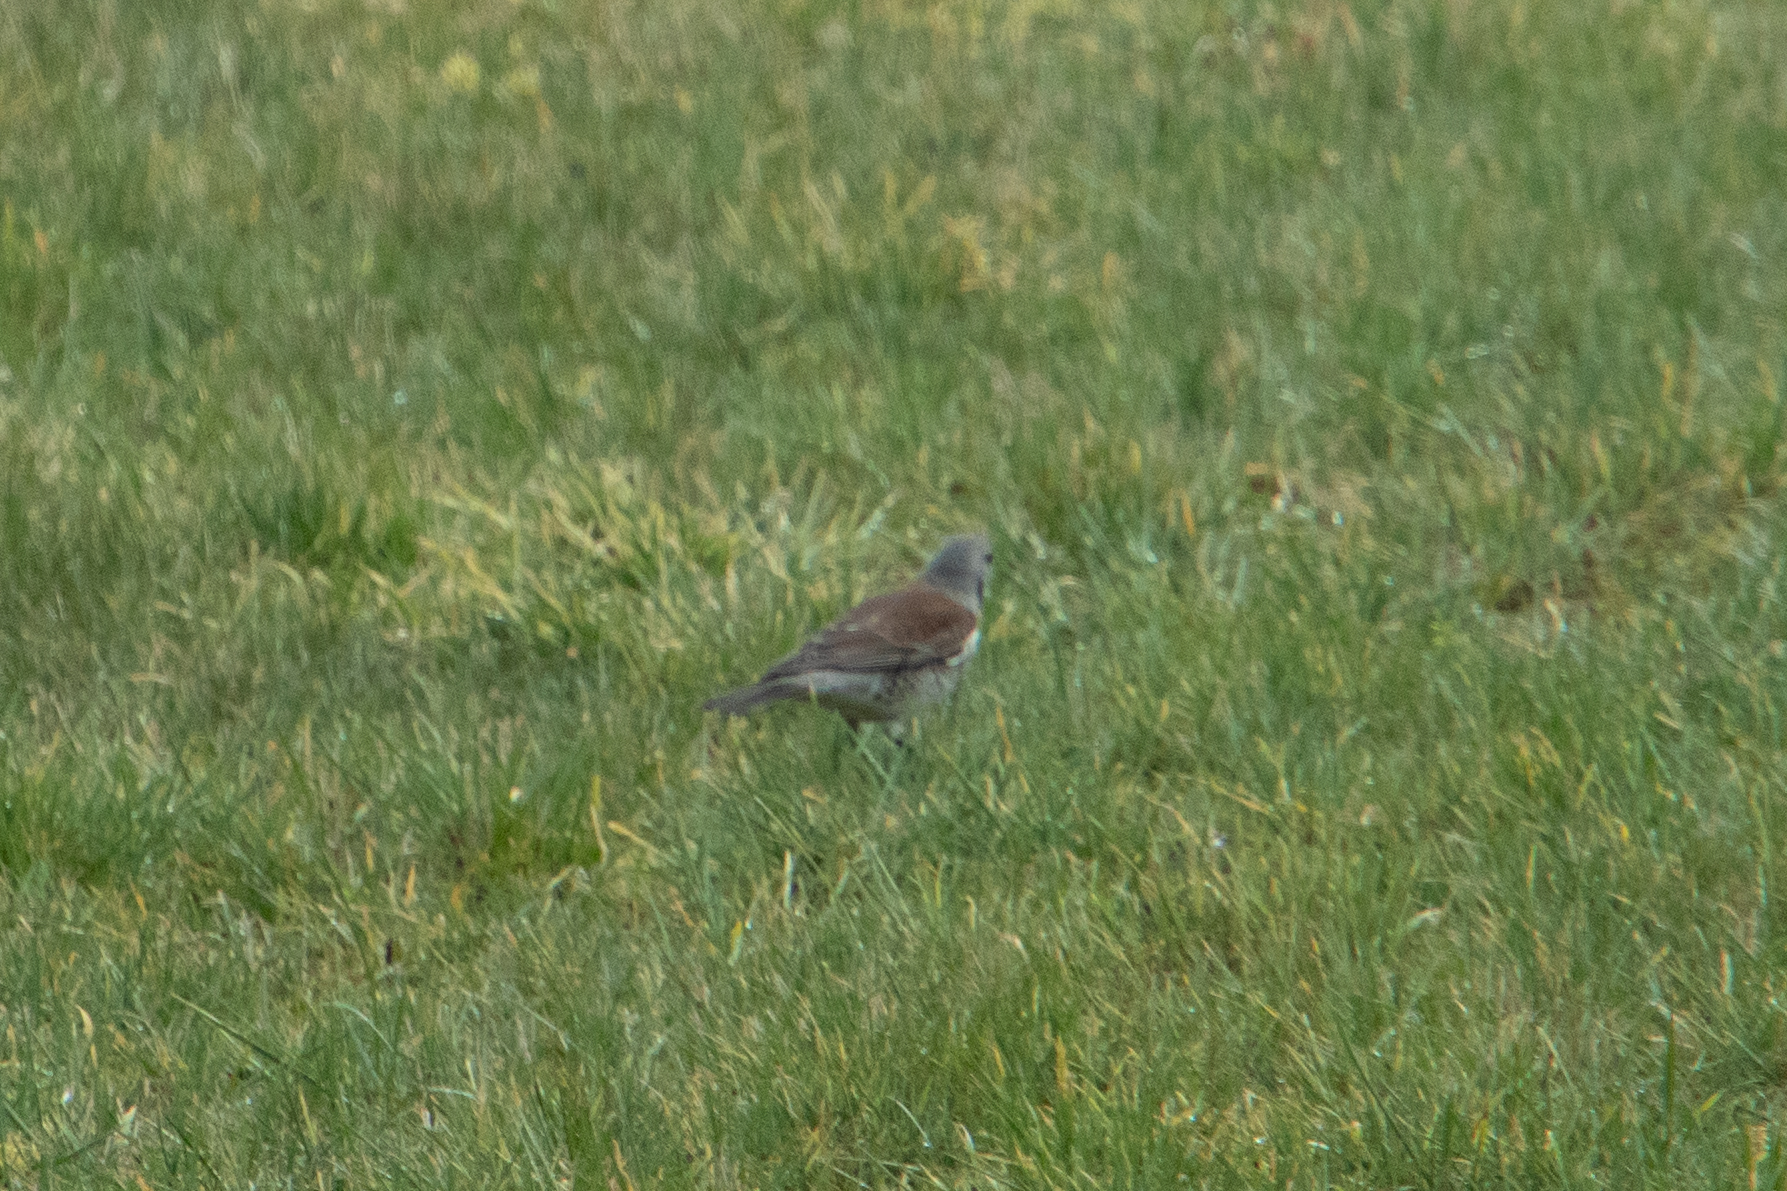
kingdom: Animalia
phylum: Chordata
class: Aves
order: Passeriformes
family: Turdidae
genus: Turdus
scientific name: Turdus pilaris
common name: Fieldfare
